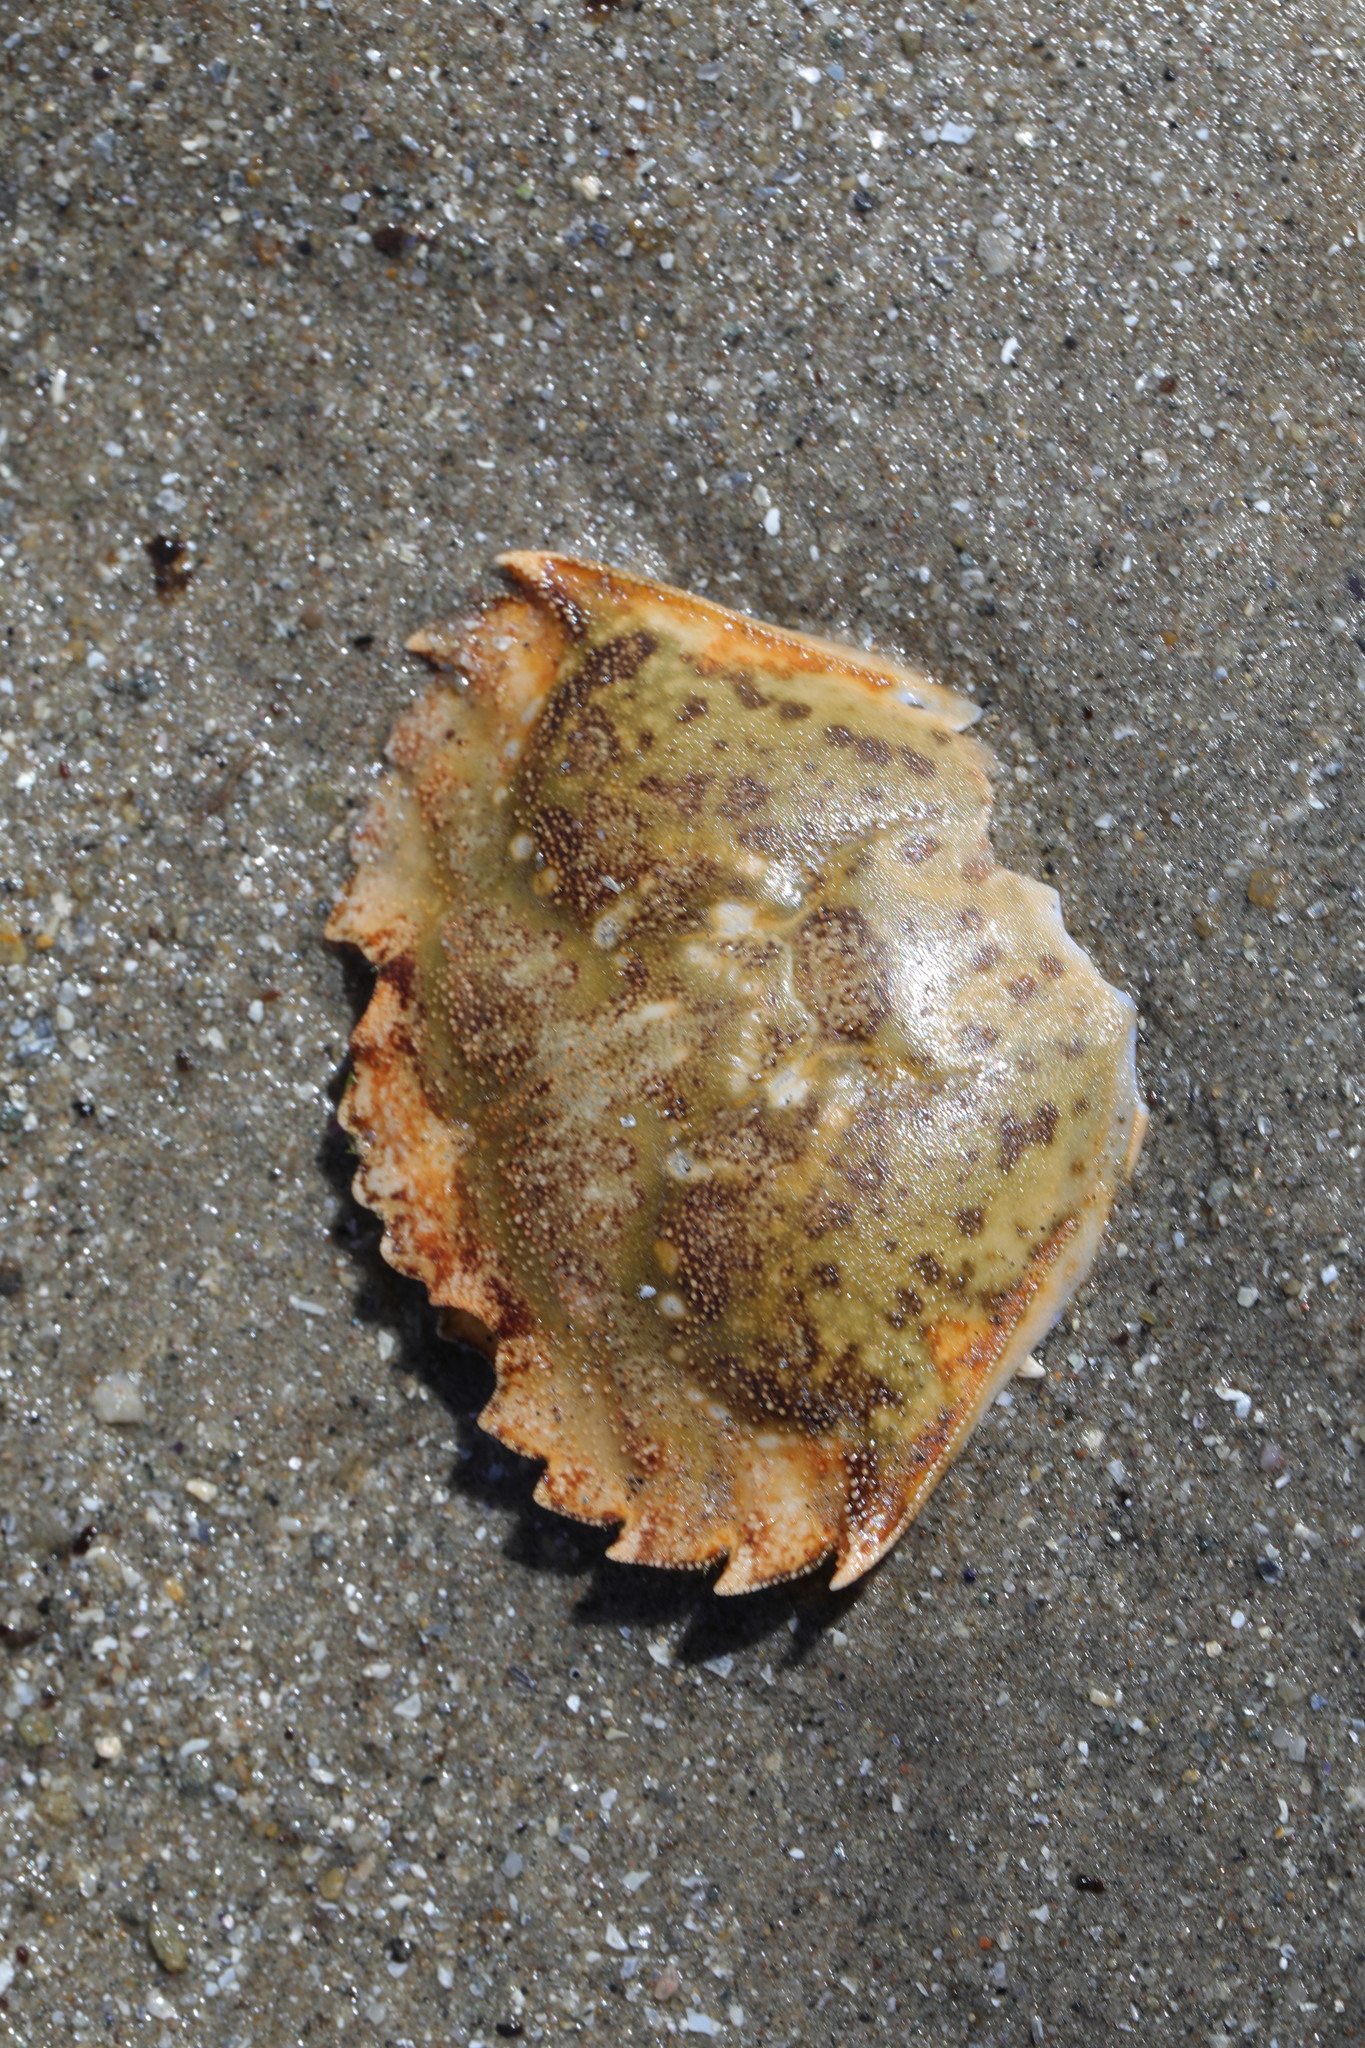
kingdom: Animalia
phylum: Arthropoda
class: Malacostraca
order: Decapoda
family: Carcinidae
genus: Carcinus
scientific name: Carcinus maenas
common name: European green crab
